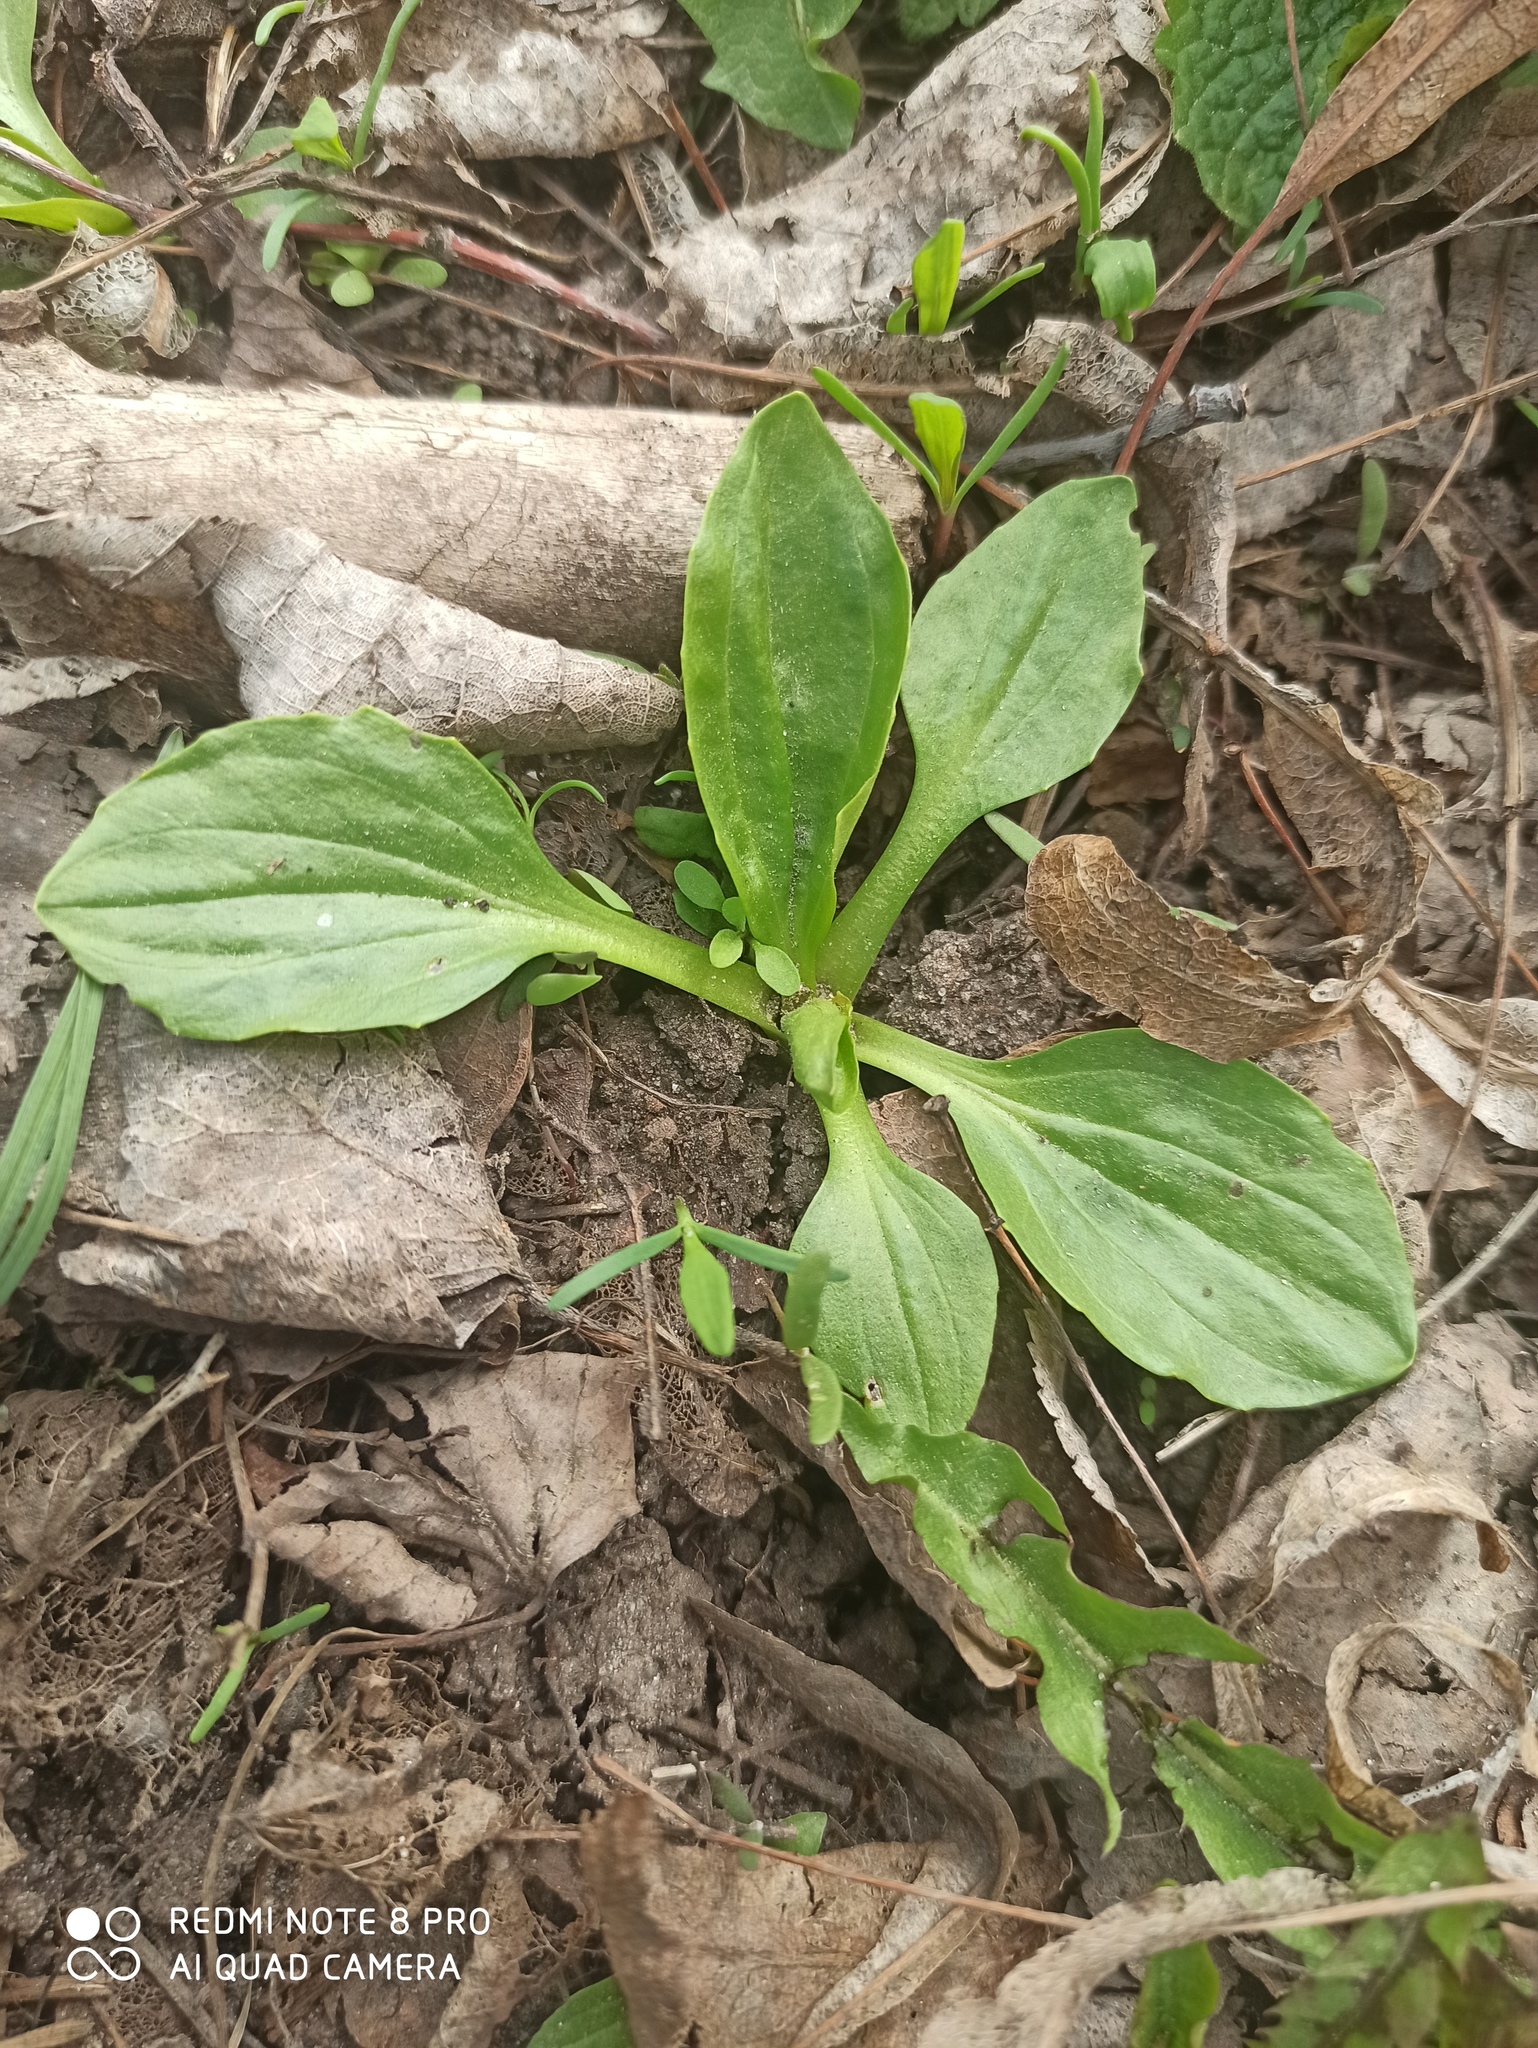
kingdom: Plantae
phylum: Tracheophyta
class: Magnoliopsida
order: Lamiales
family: Plantaginaceae
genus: Plantago
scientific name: Plantago major
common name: Common plantain
